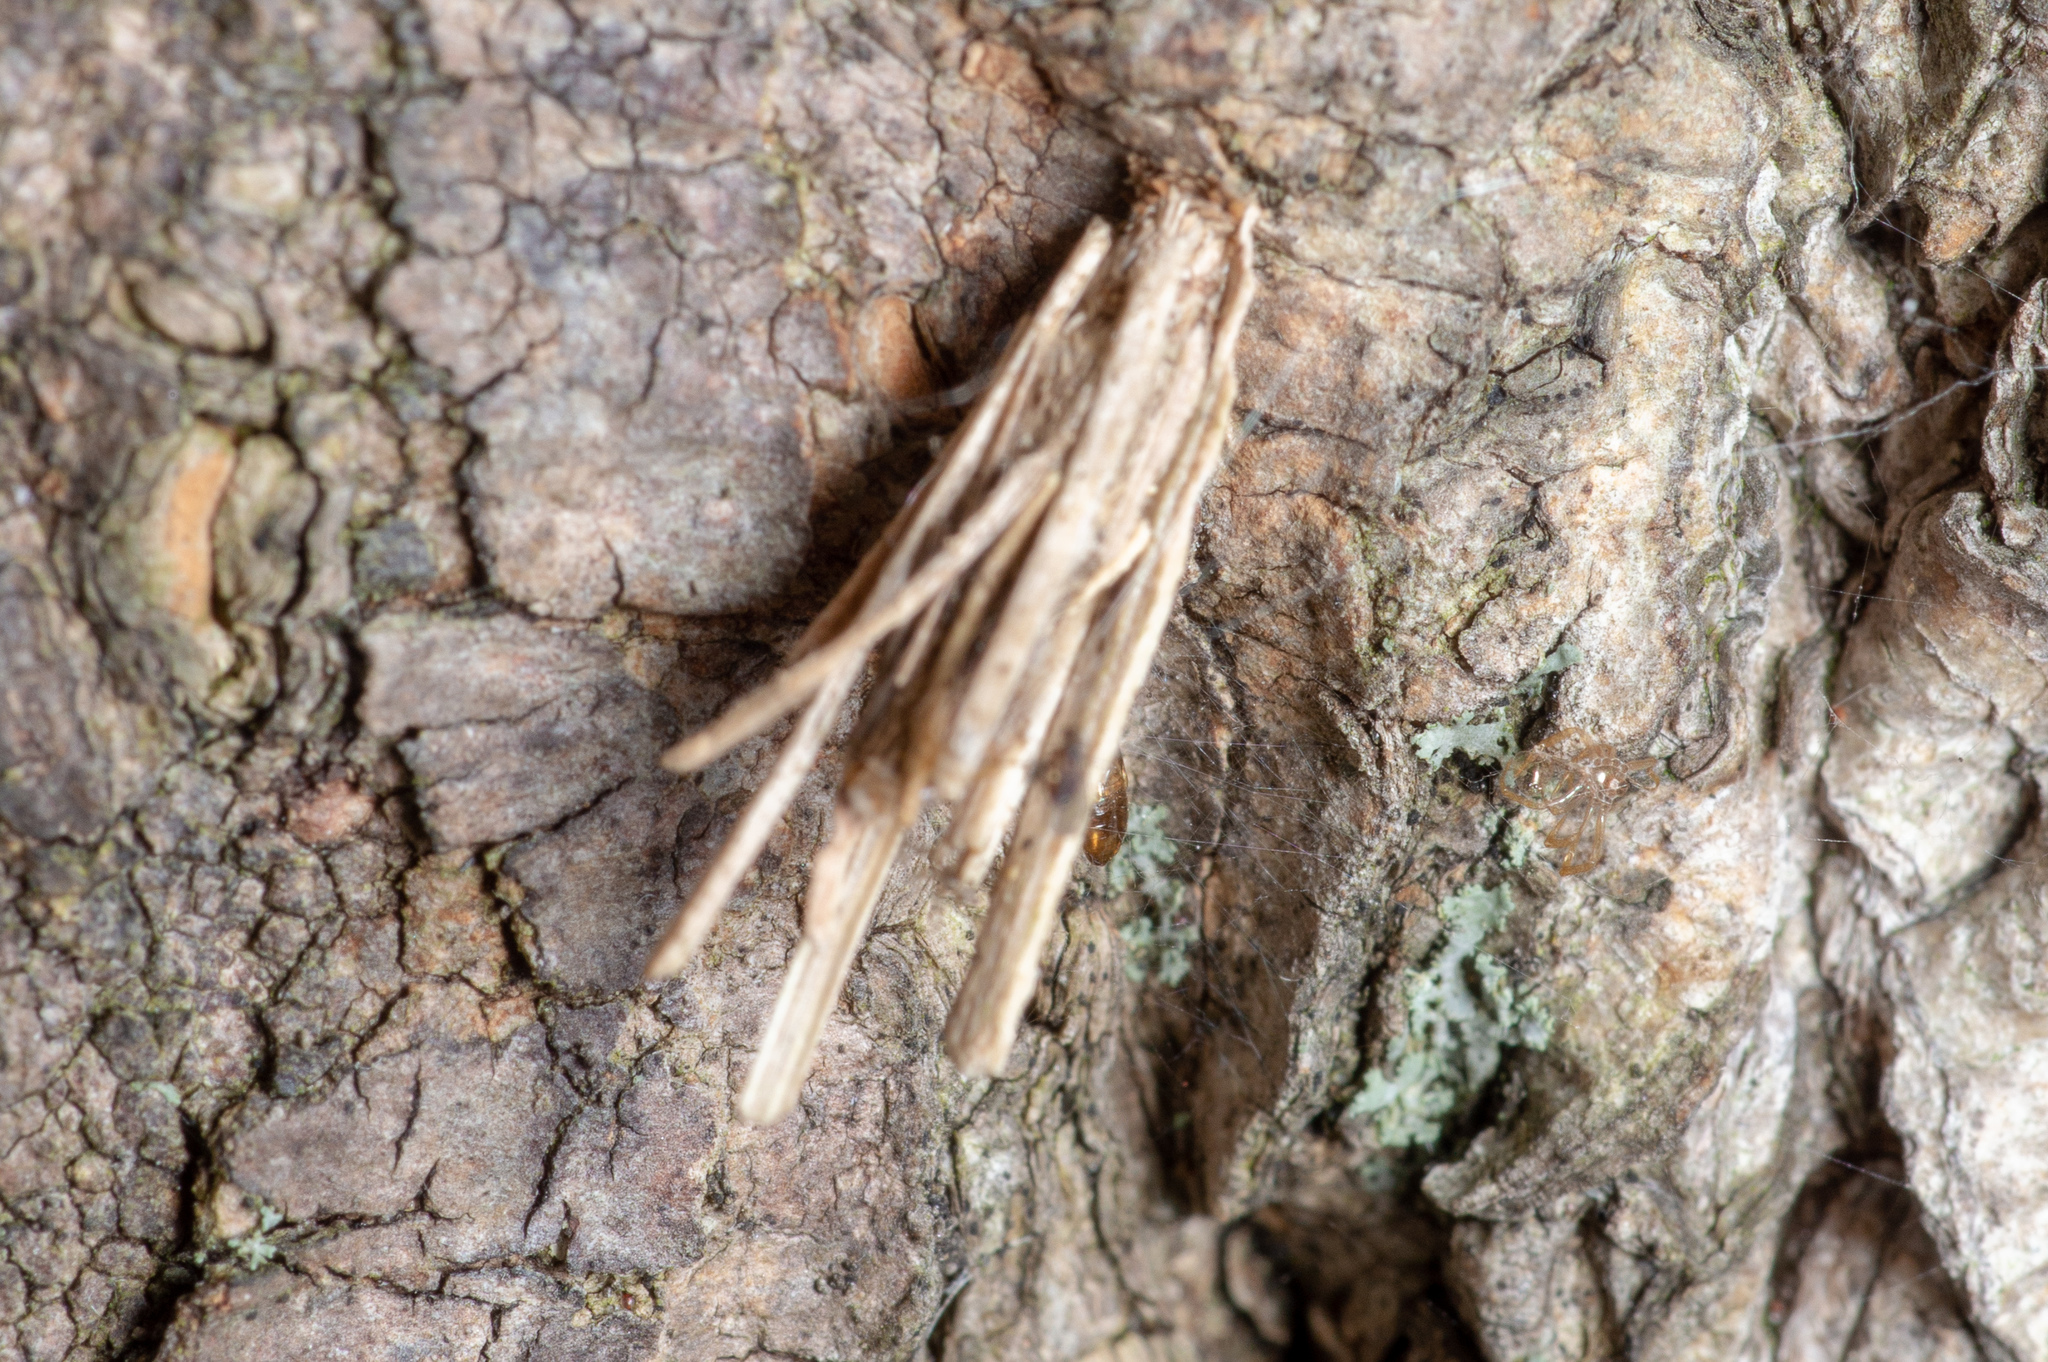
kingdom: Animalia
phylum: Arthropoda
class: Insecta
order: Lepidoptera
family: Psychidae
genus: Psyche
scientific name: Psyche casta
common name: Common sweep
